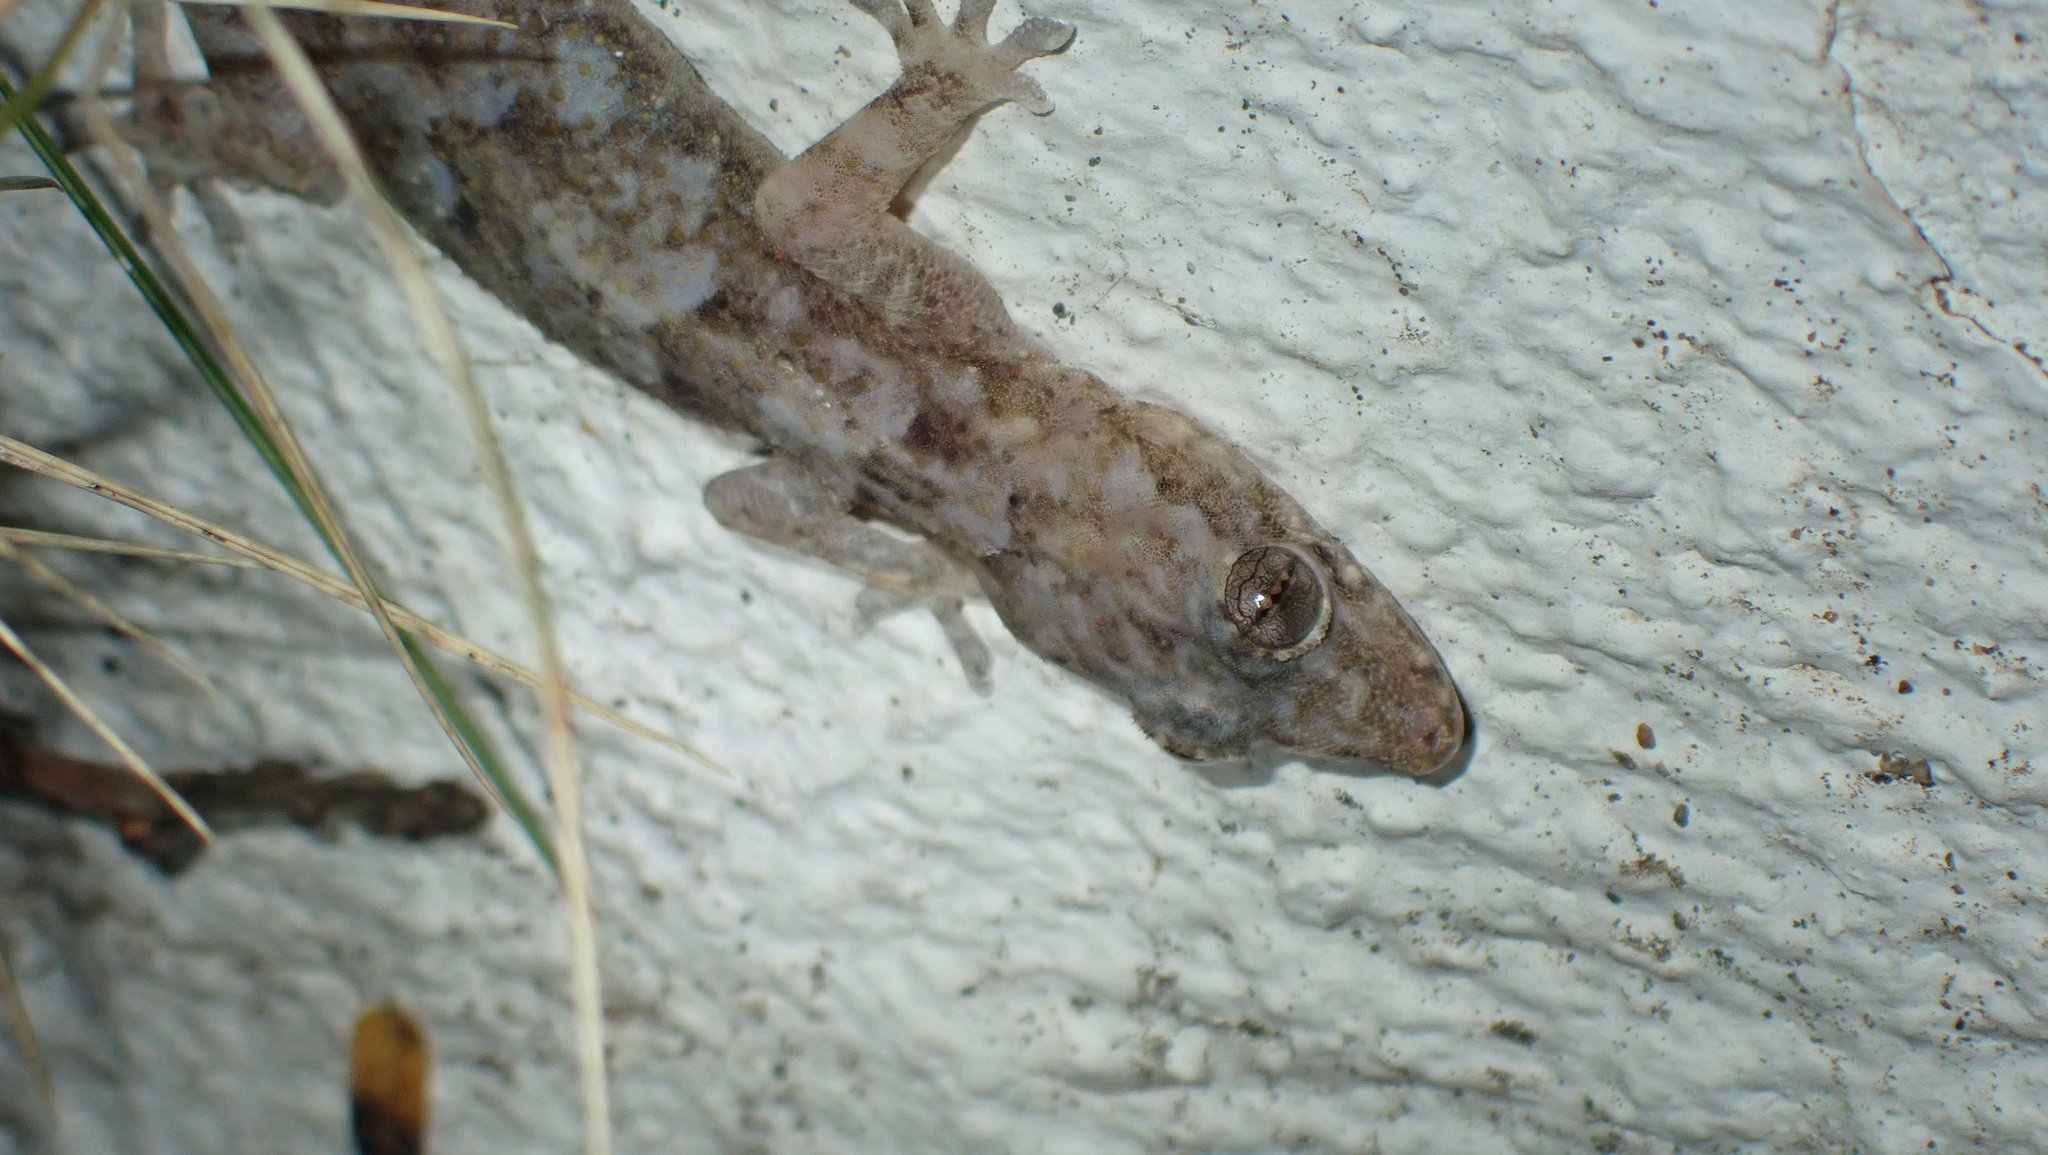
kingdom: Animalia
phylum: Chordata
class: Squamata
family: Gekkonidae
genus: Hemidactylus
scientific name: Hemidactylus mabouia
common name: House gecko
